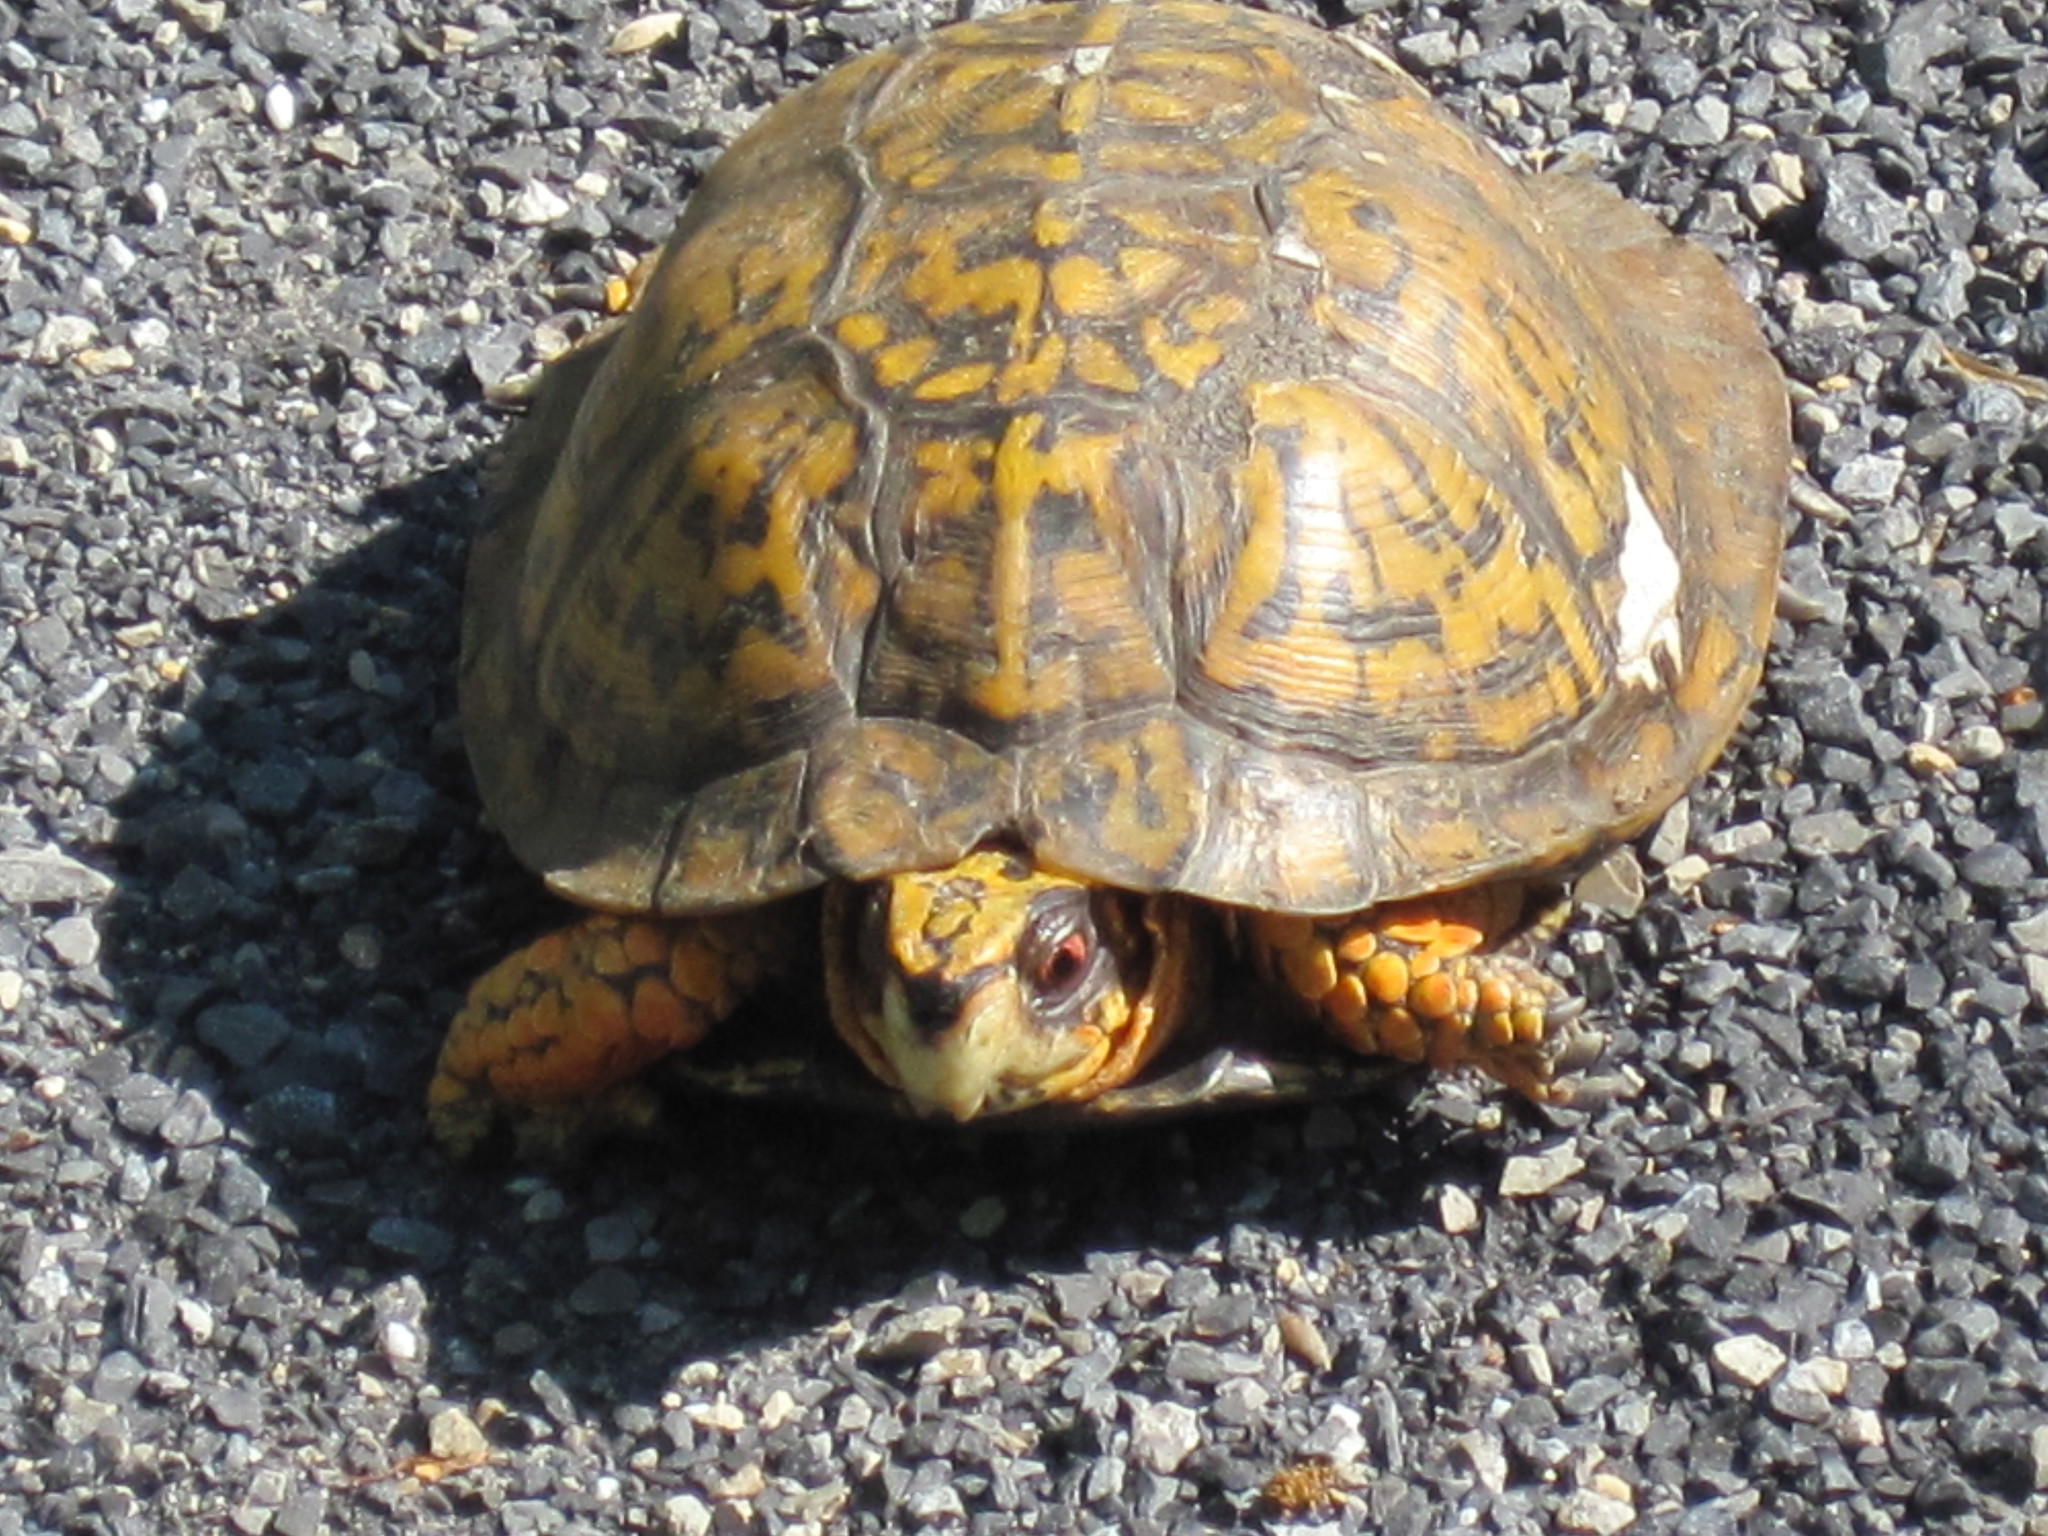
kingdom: Animalia
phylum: Chordata
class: Testudines
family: Emydidae
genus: Terrapene
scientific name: Terrapene carolina
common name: Common box turtle
